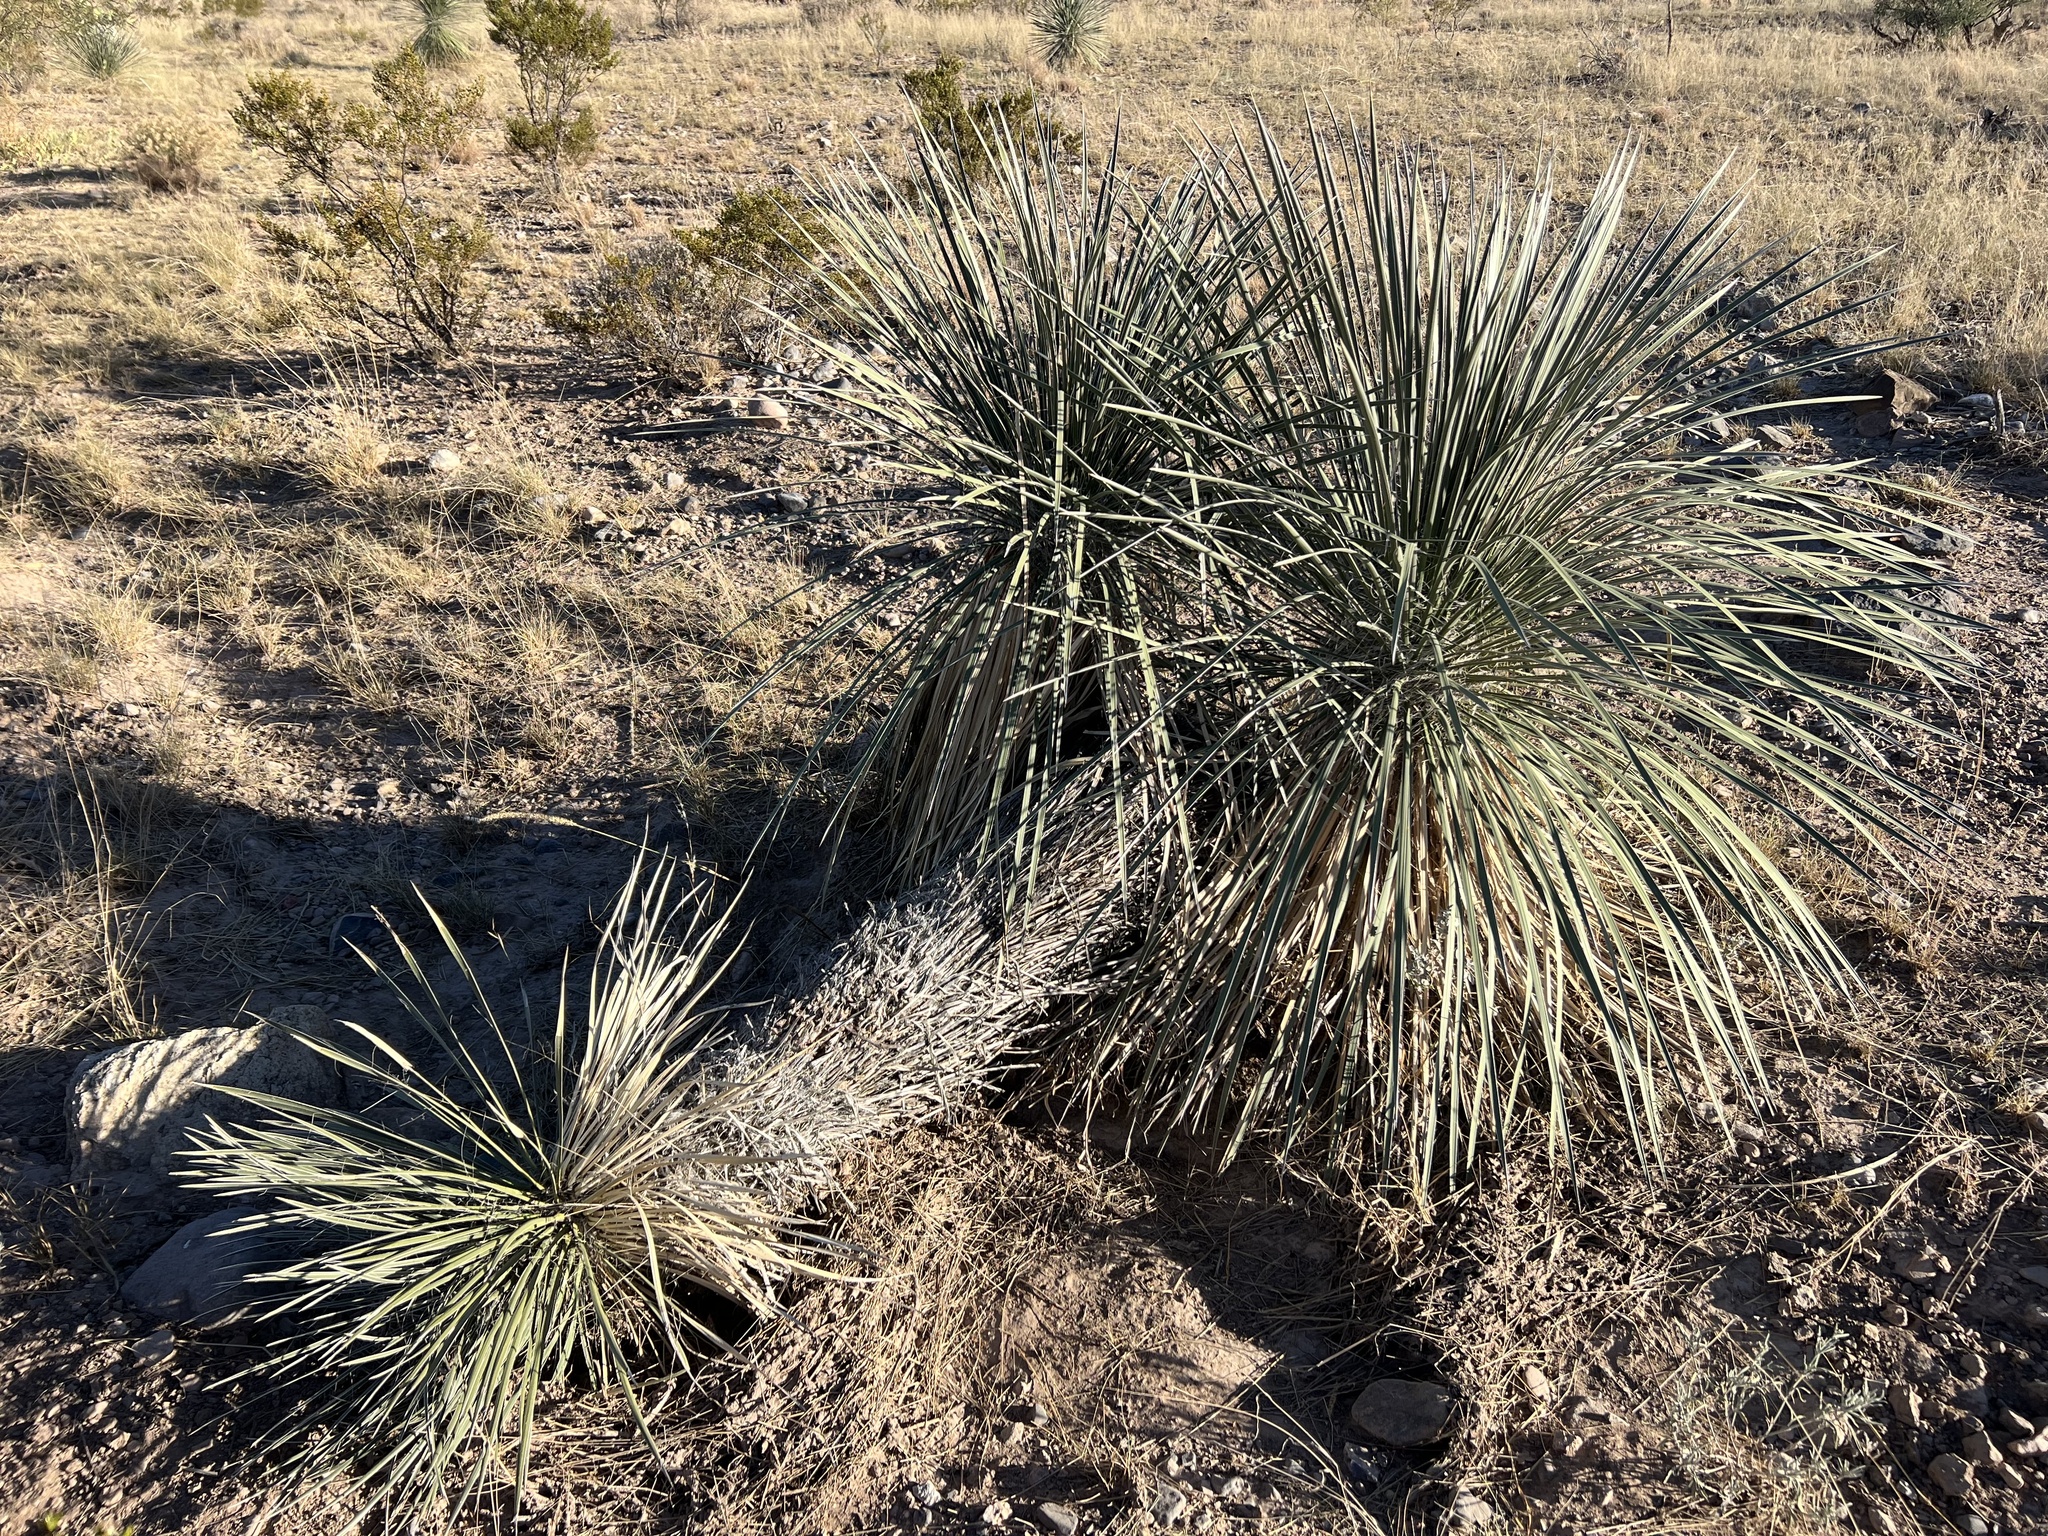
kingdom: Plantae
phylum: Tracheophyta
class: Liliopsida
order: Asparagales
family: Asparagaceae
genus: Yucca
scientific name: Yucca elata
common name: Palmella
